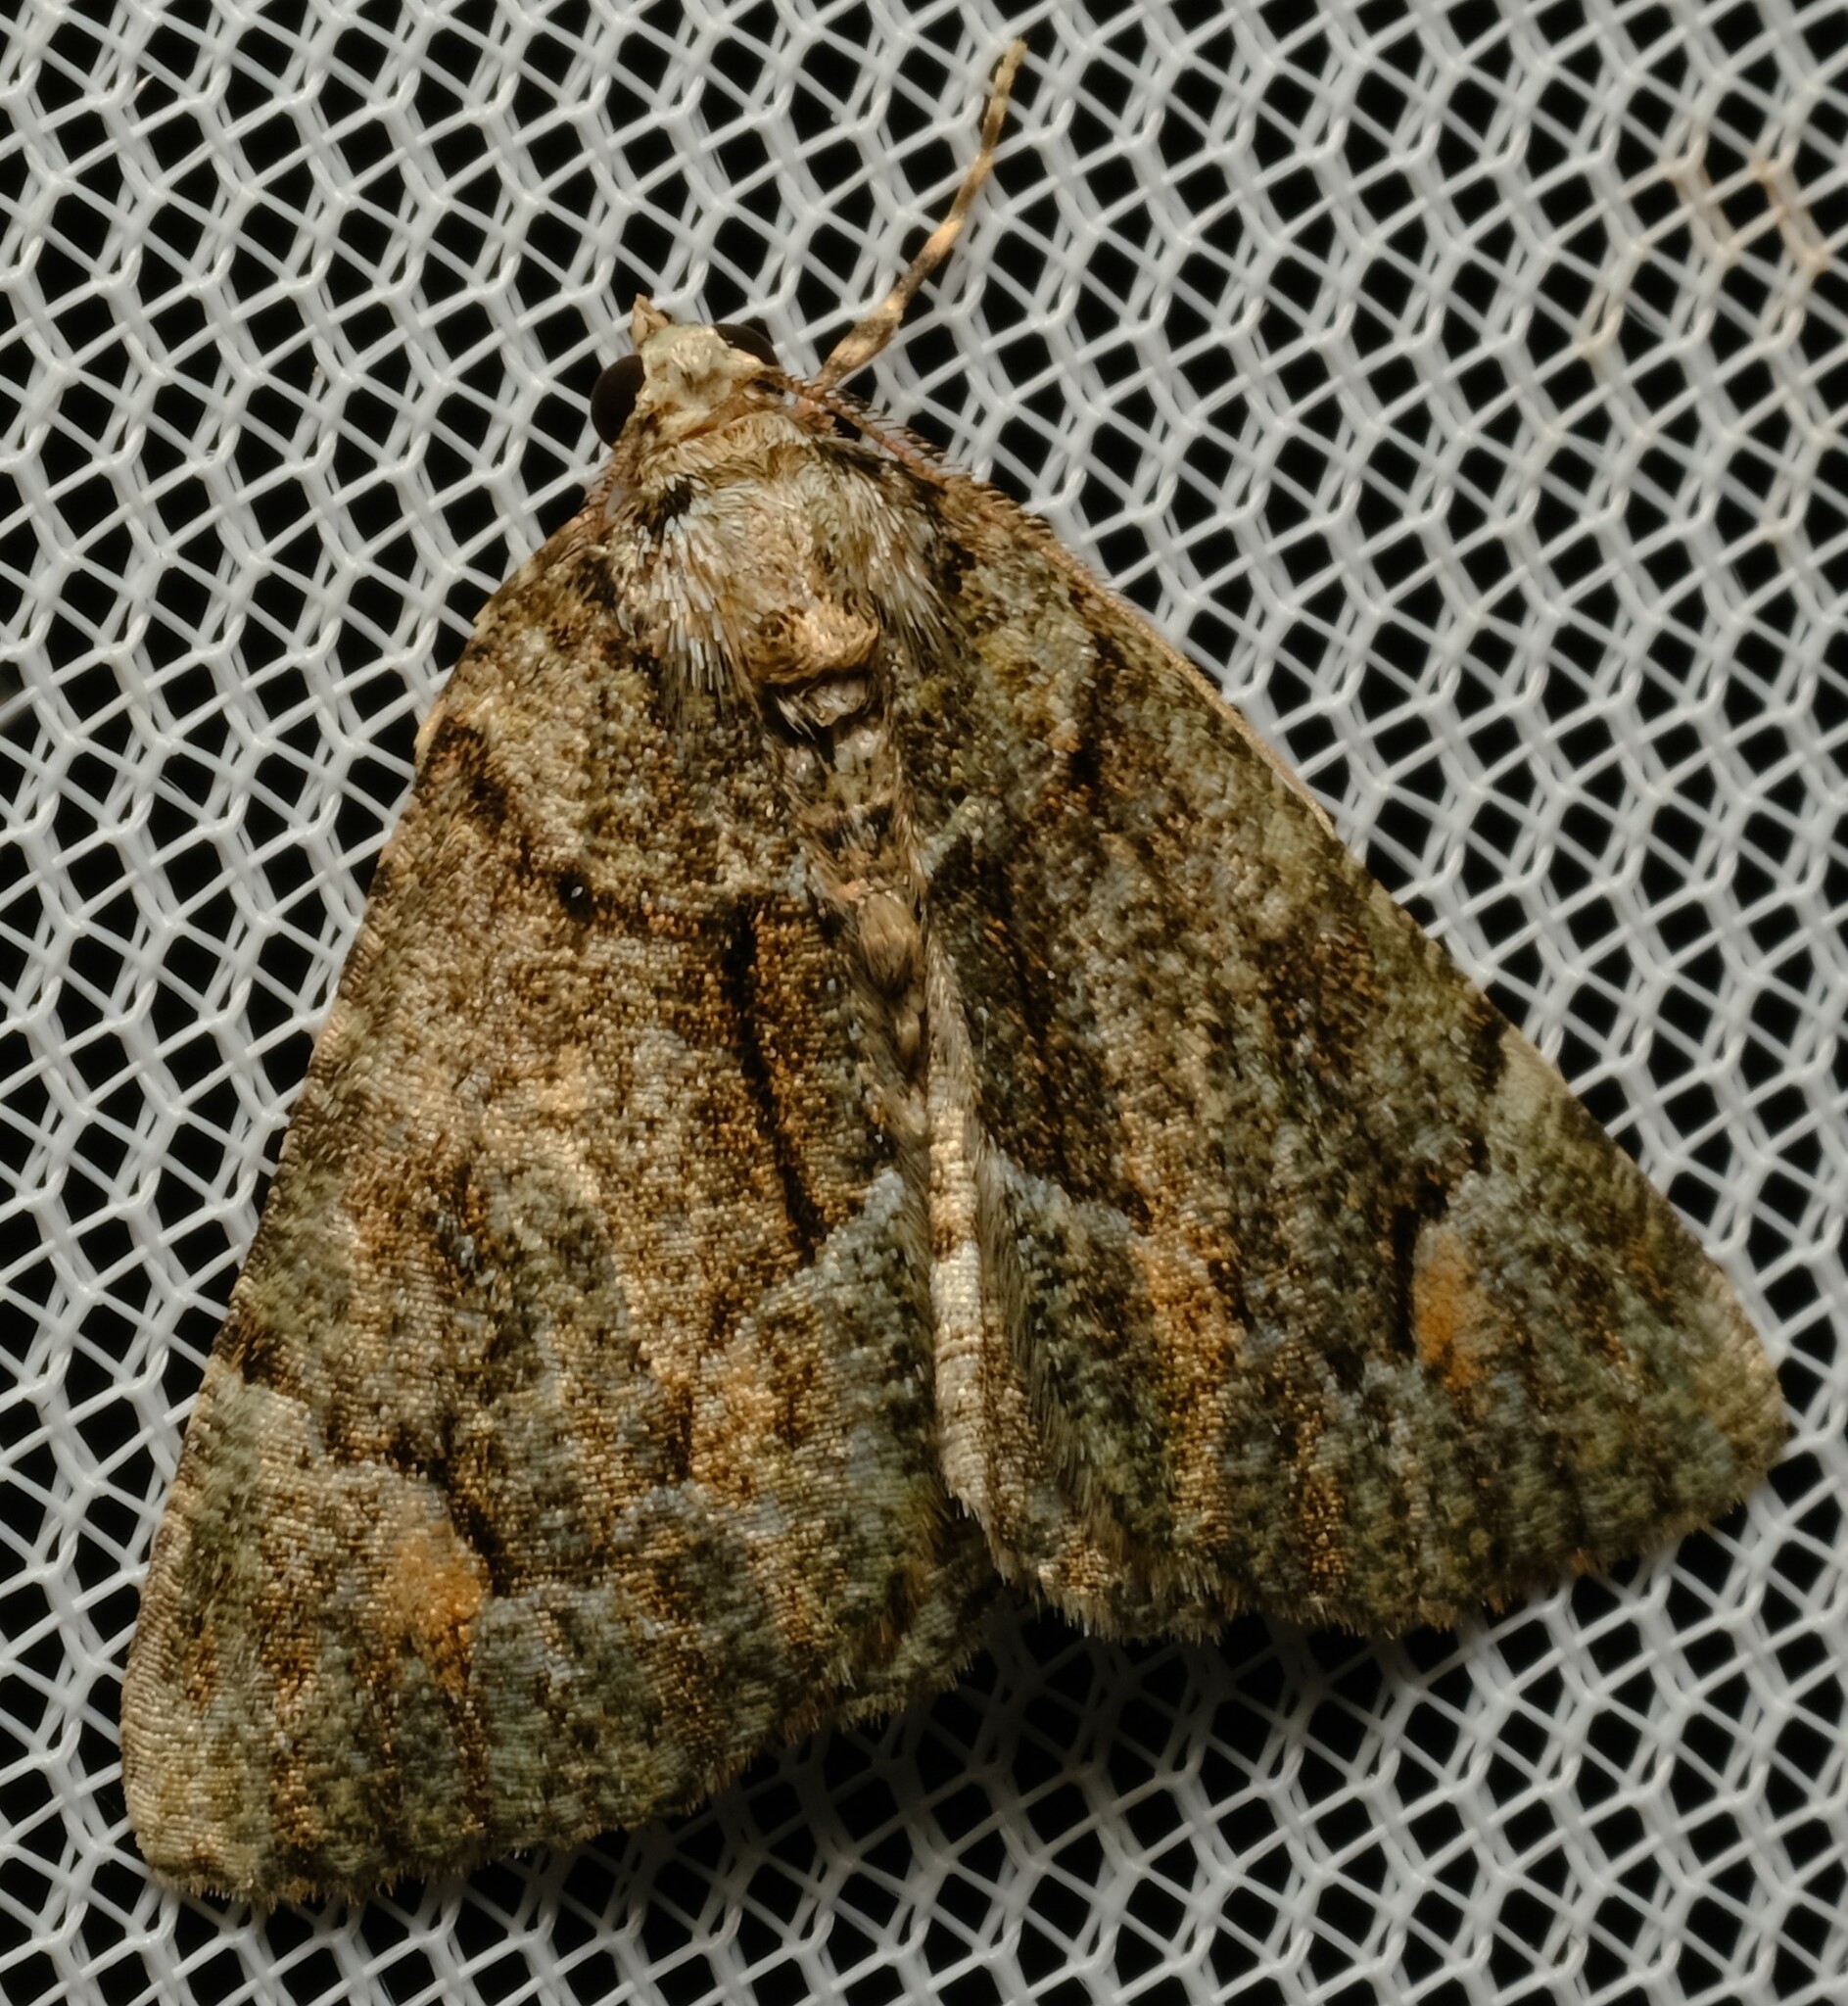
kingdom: Animalia
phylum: Arthropoda
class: Insecta
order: Lepidoptera
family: Geometridae
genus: Aeolochroma
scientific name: Aeolochroma metarhodata
